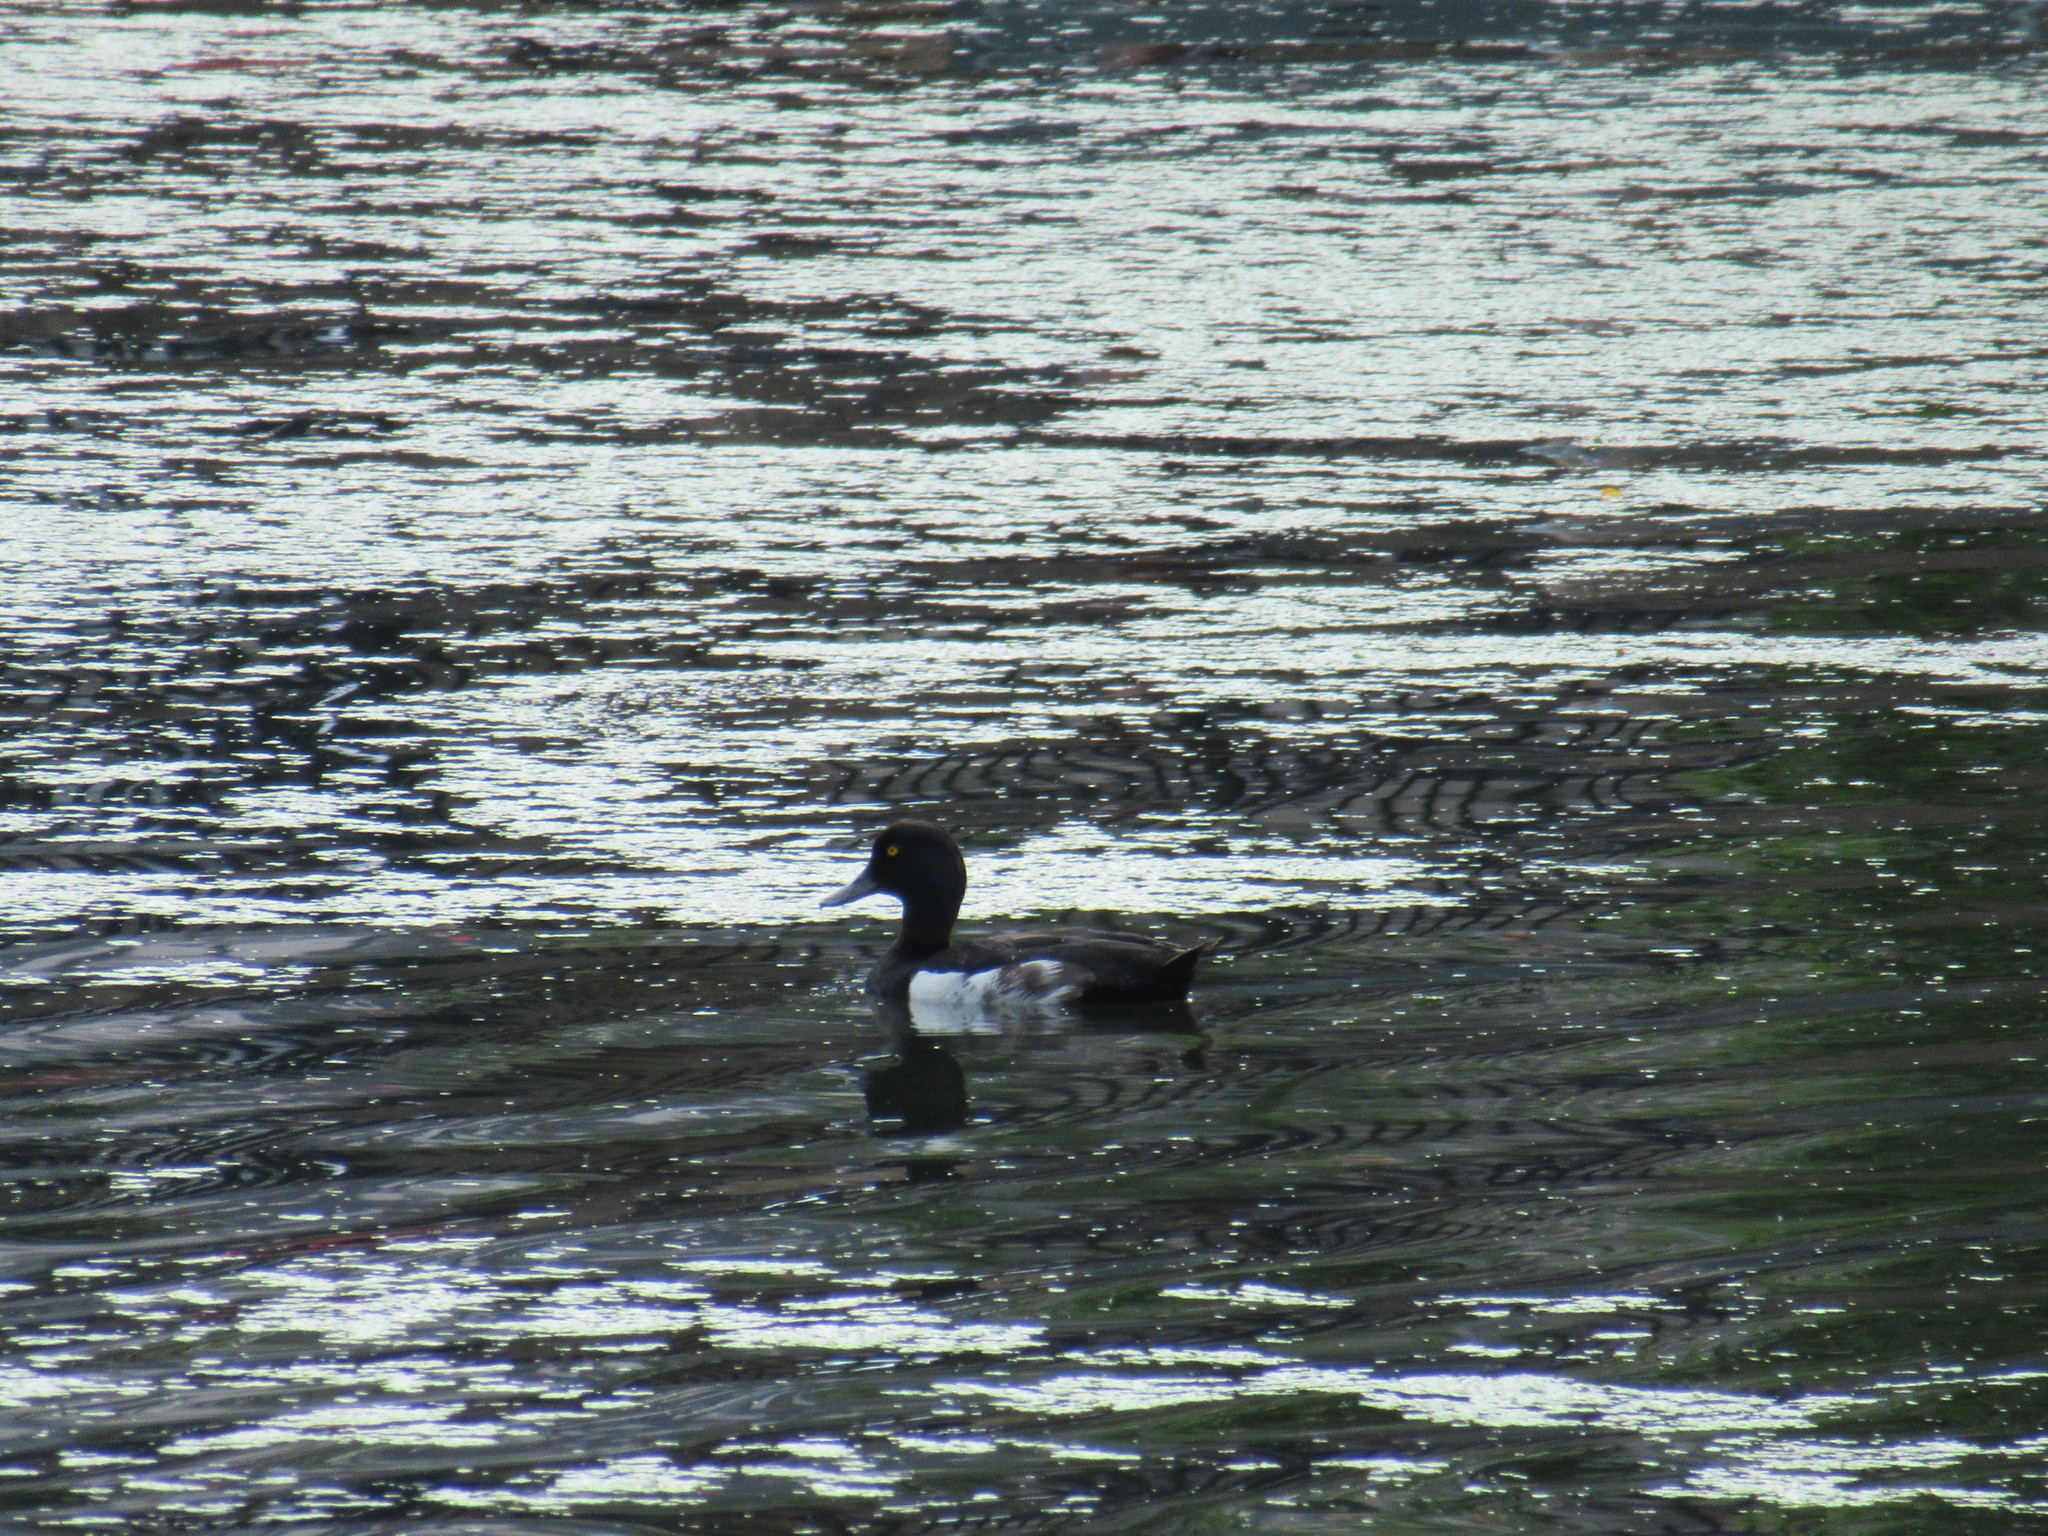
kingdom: Animalia
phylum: Chordata
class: Aves
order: Anseriformes
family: Anatidae
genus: Aythya
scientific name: Aythya fuligula
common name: Tufted duck
